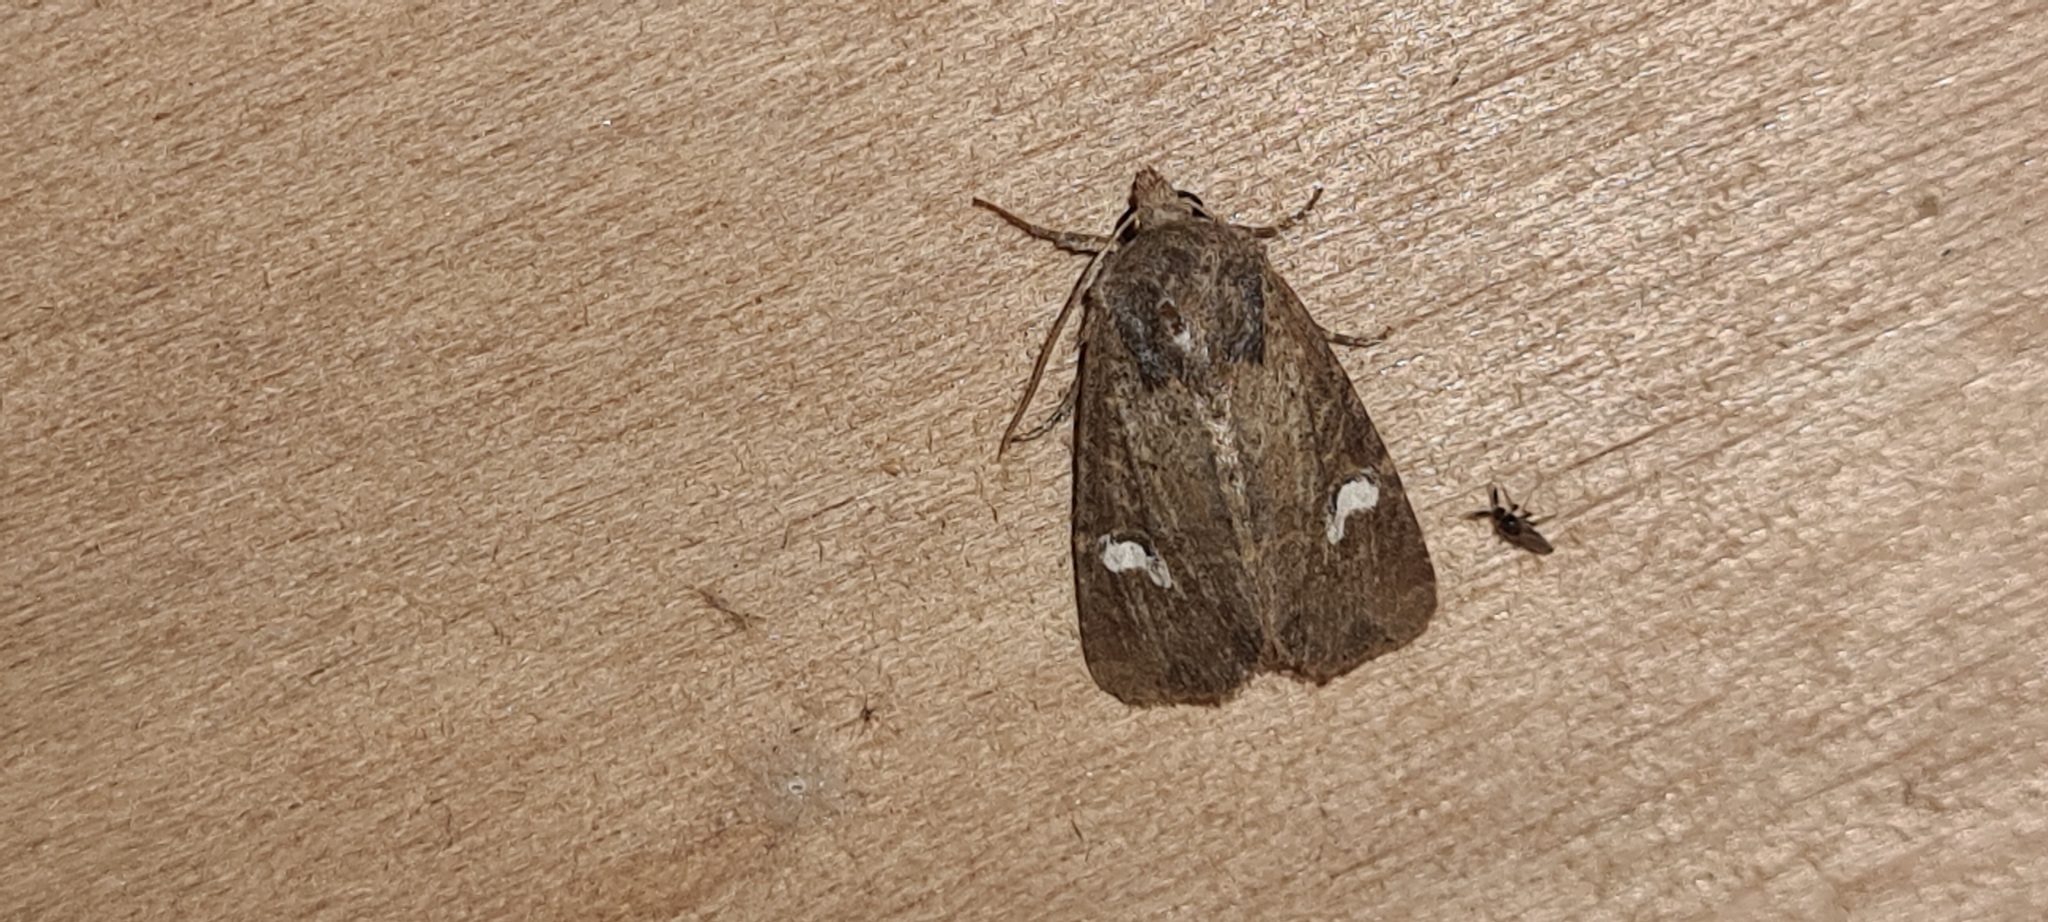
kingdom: Animalia
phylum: Arthropoda
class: Insecta
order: Lepidoptera
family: Noctuidae
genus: Helotropha
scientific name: Helotropha leucostigma
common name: The crescent
